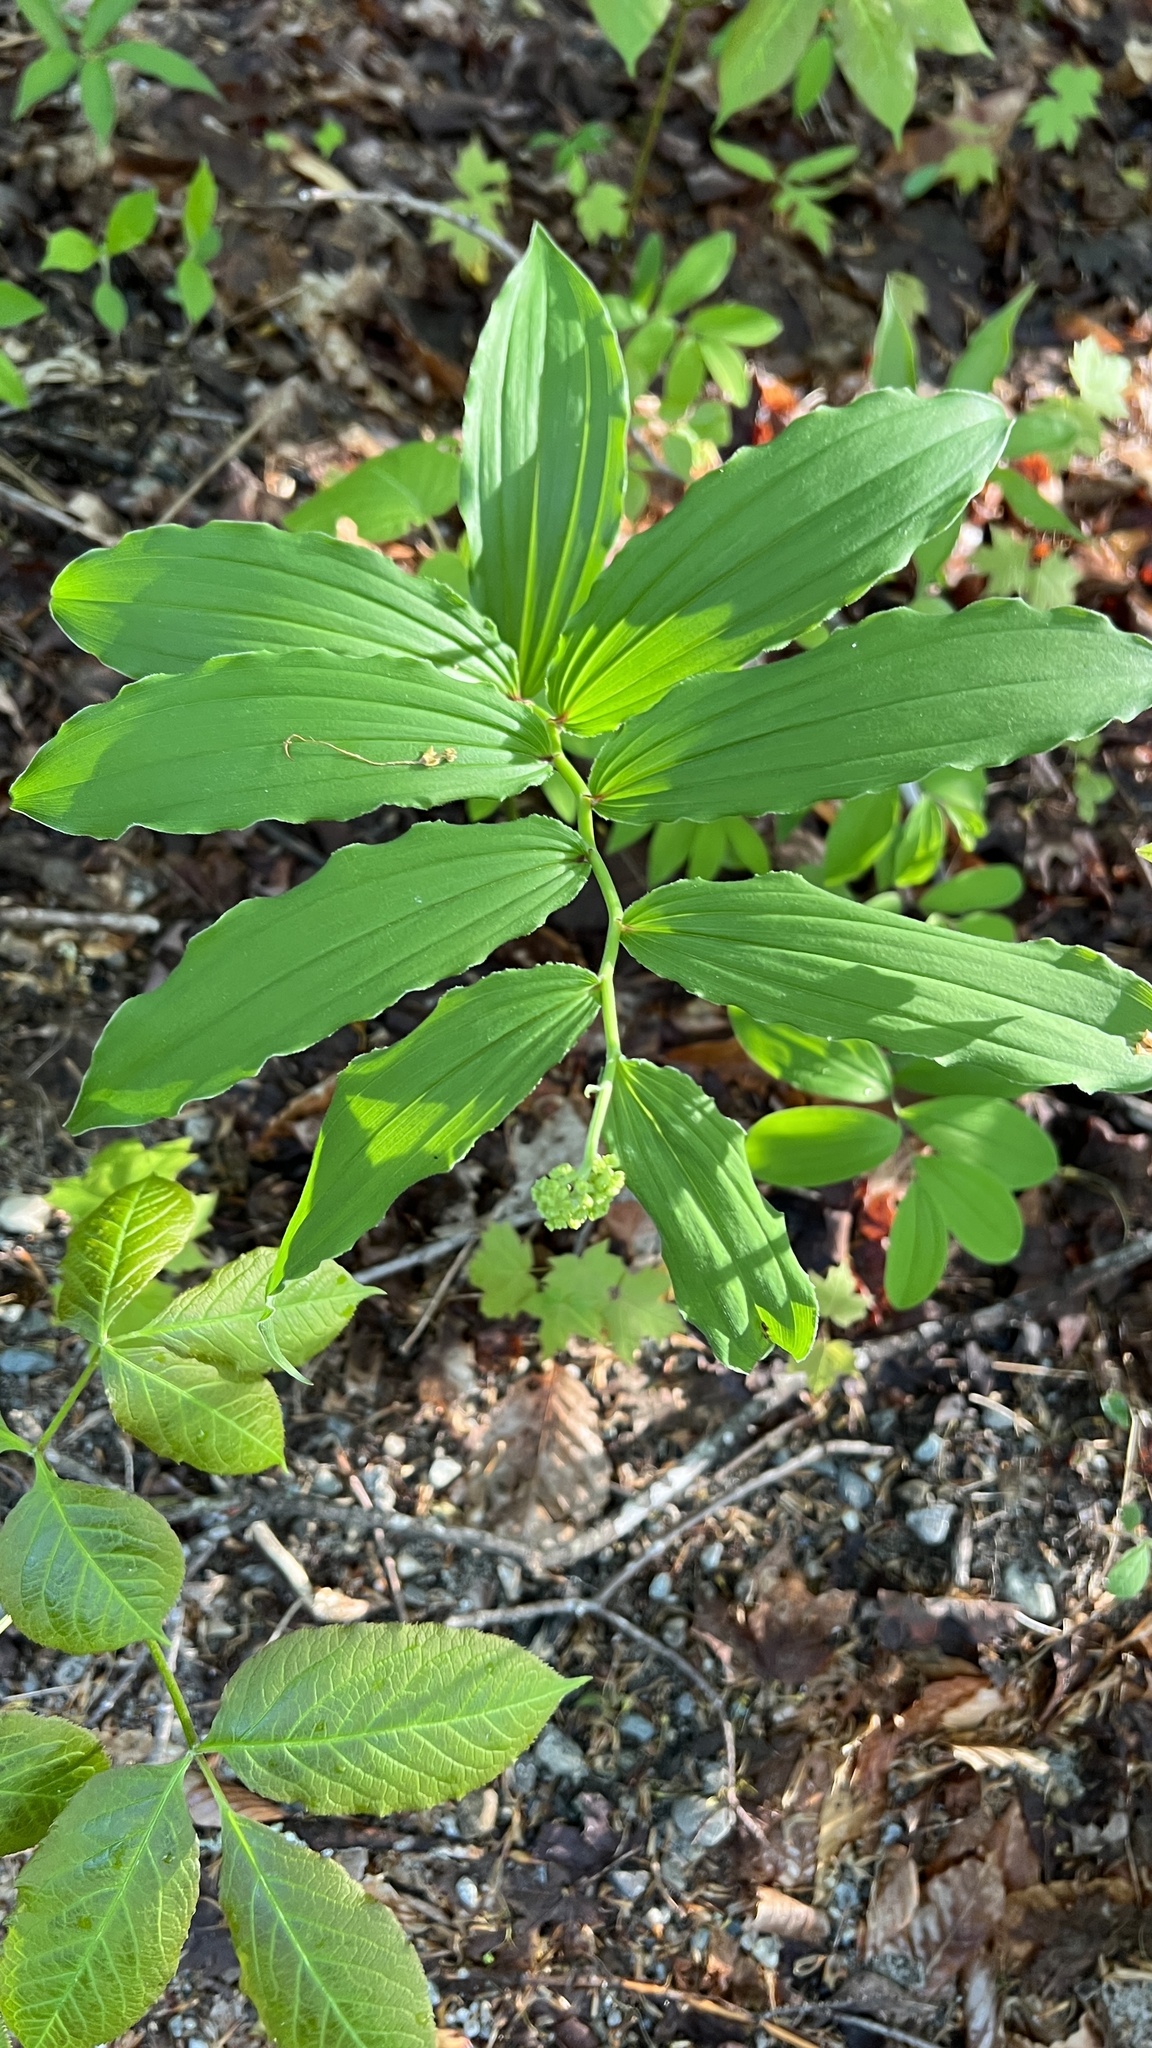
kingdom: Plantae
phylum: Tracheophyta
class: Liliopsida
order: Asparagales
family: Asparagaceae
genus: Maianthemum
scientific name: Maianthemum racemosum
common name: False spikenard
